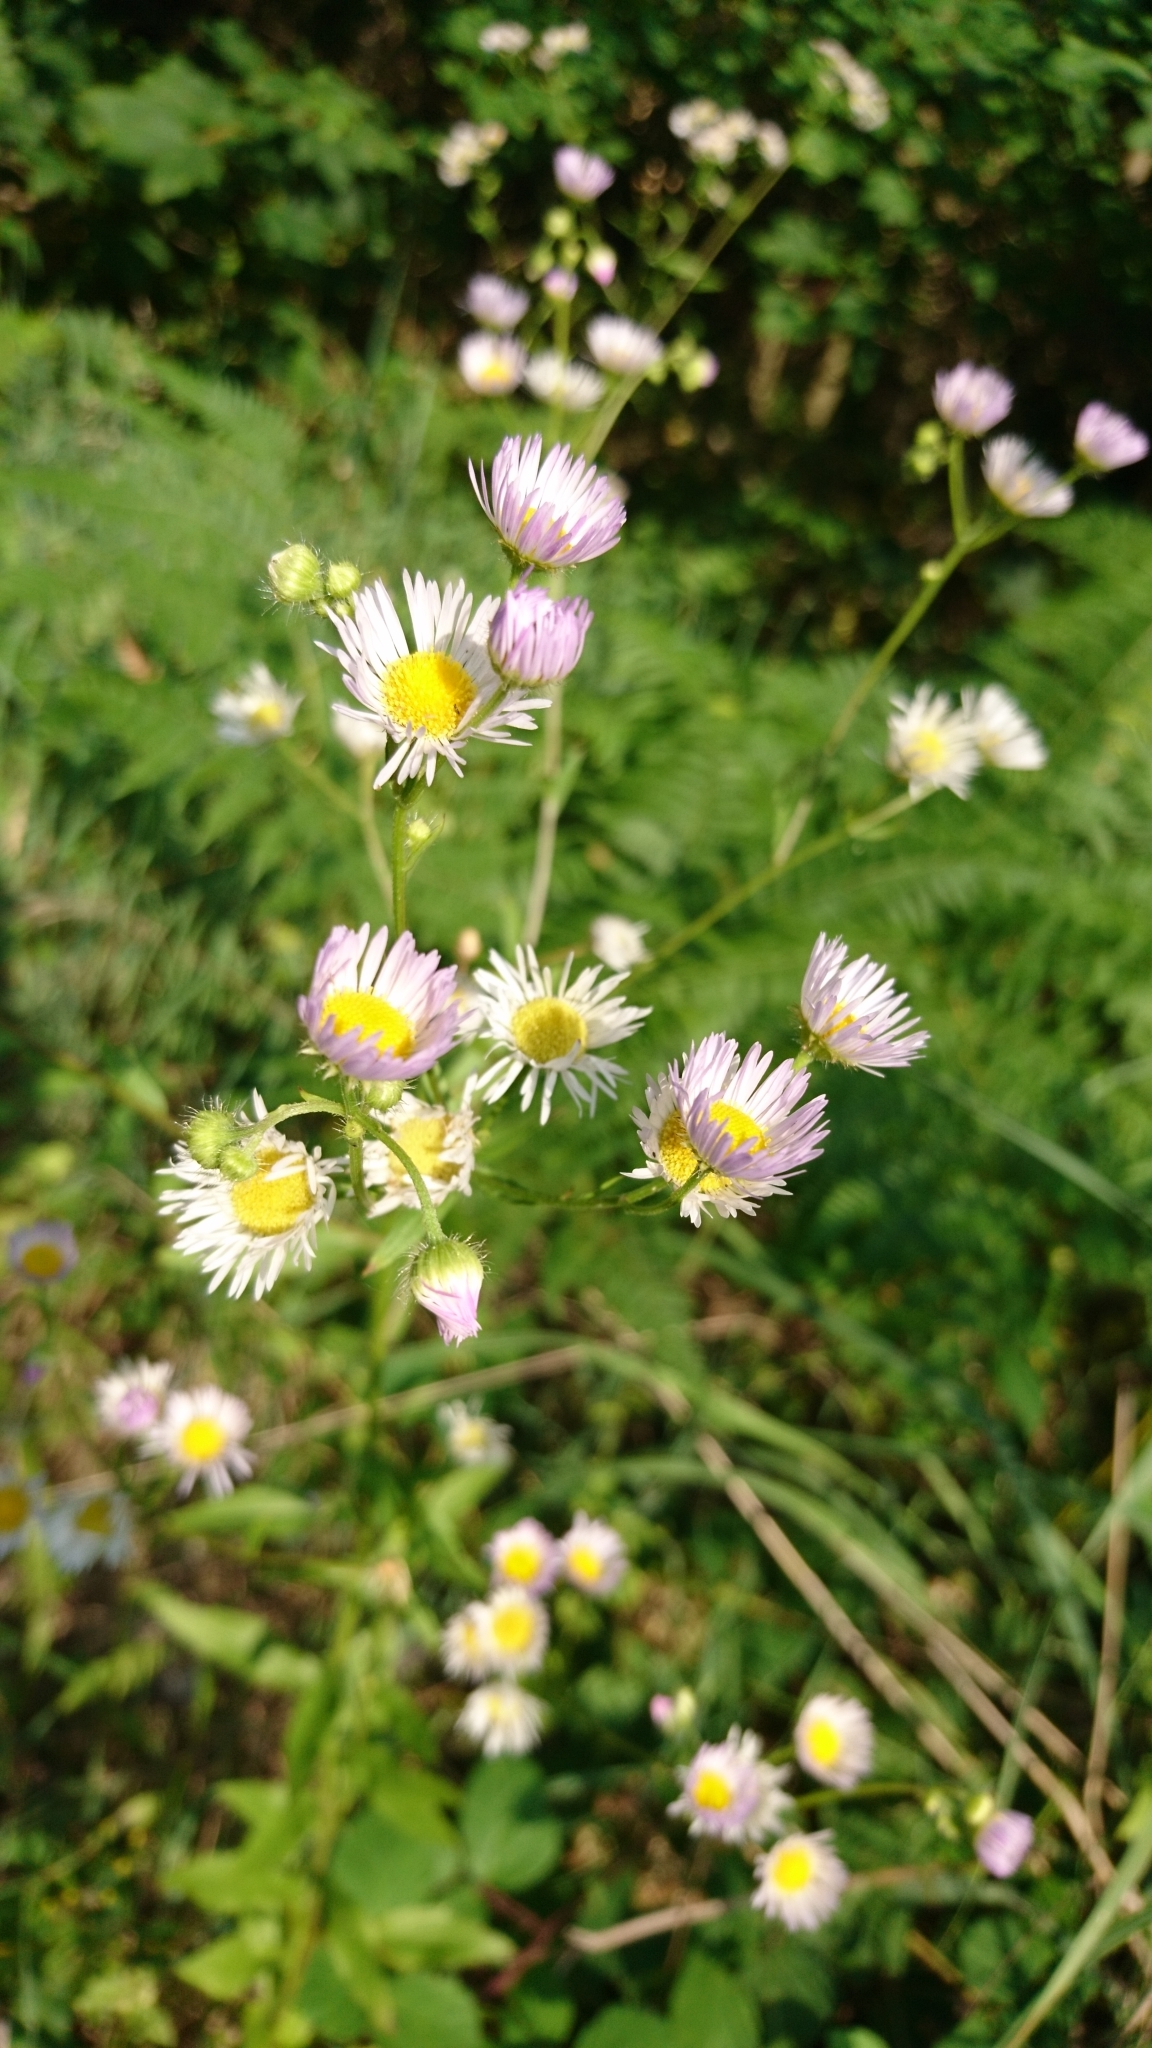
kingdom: Plantae
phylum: Tracheophyta
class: Magnoliopsida
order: Asterales
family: Asteraceae
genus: Erigeron
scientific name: Erigeron annuus
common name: Tall fleabane
